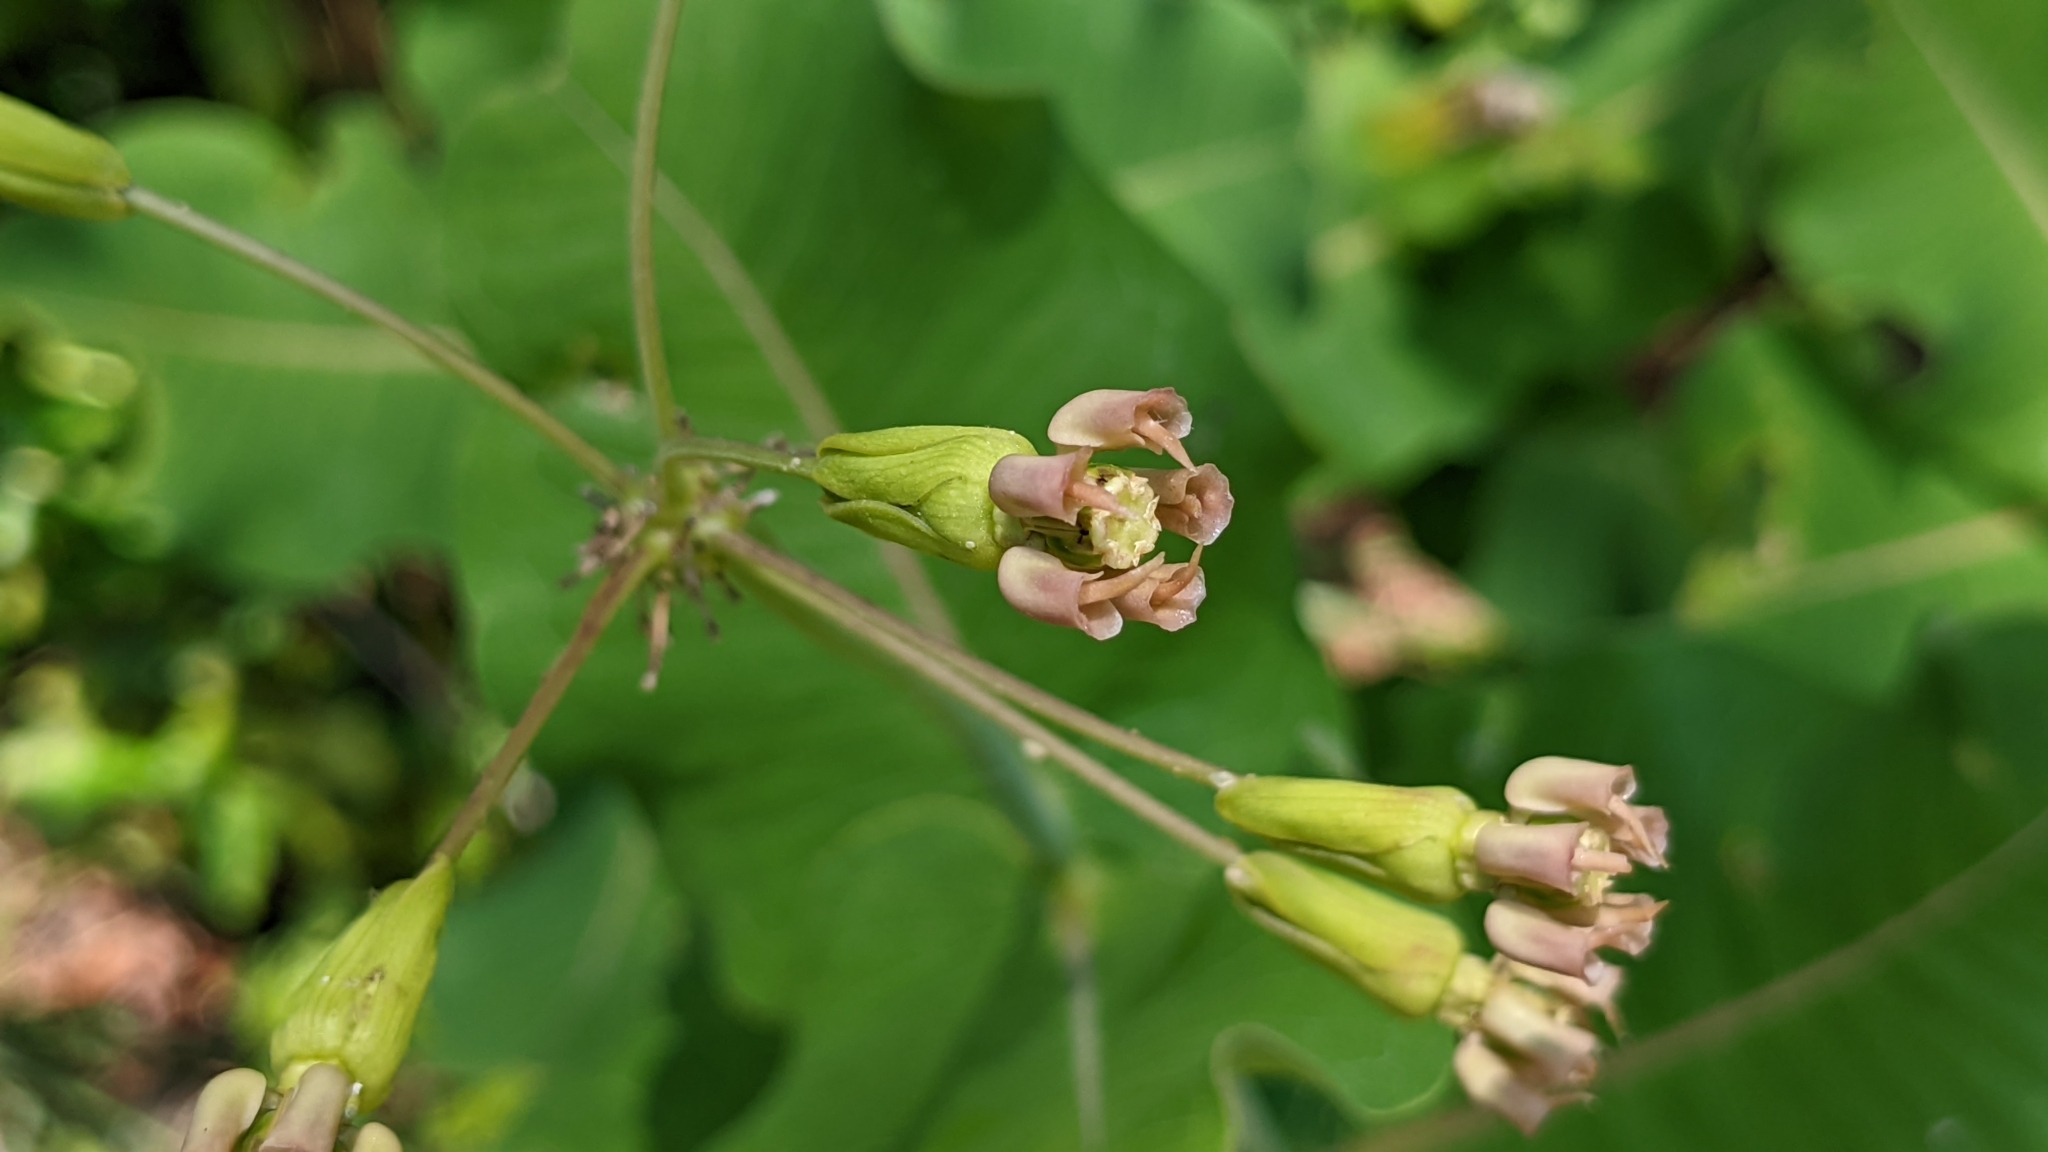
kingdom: Plantae
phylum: Tracheophyta
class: Magnoliopsida
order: Gentianales
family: Apocynaceae
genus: Asclepias
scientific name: Asclepias amplexicaulis
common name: Blunt-leaf milkweed
